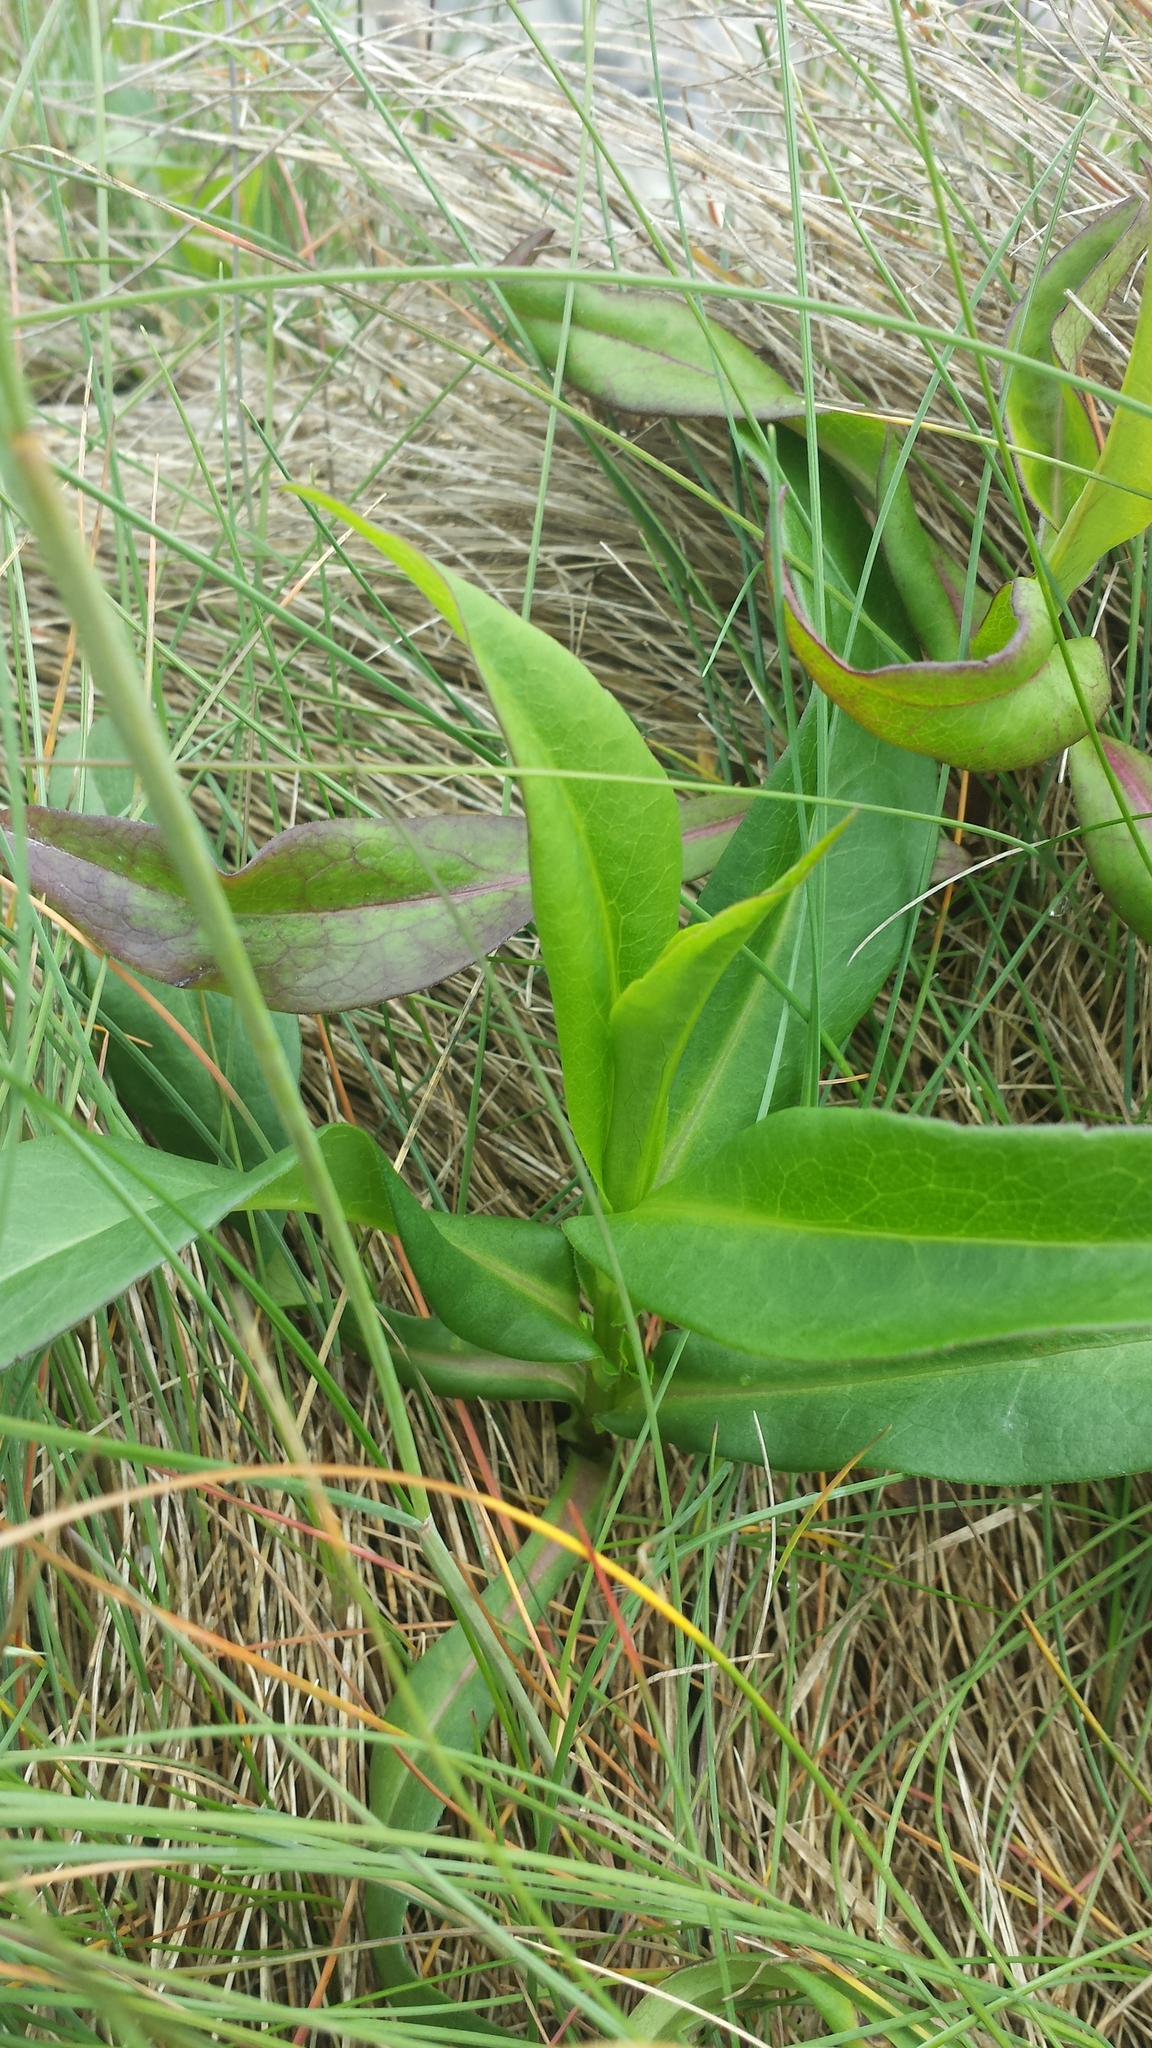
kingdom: Plantae
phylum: Tracheophyta
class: Magnoliopsida
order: Asterales
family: Asteraceae
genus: Symphyotrichum
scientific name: Symphyotrichum novi-belgii
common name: Michaelmas daisy
